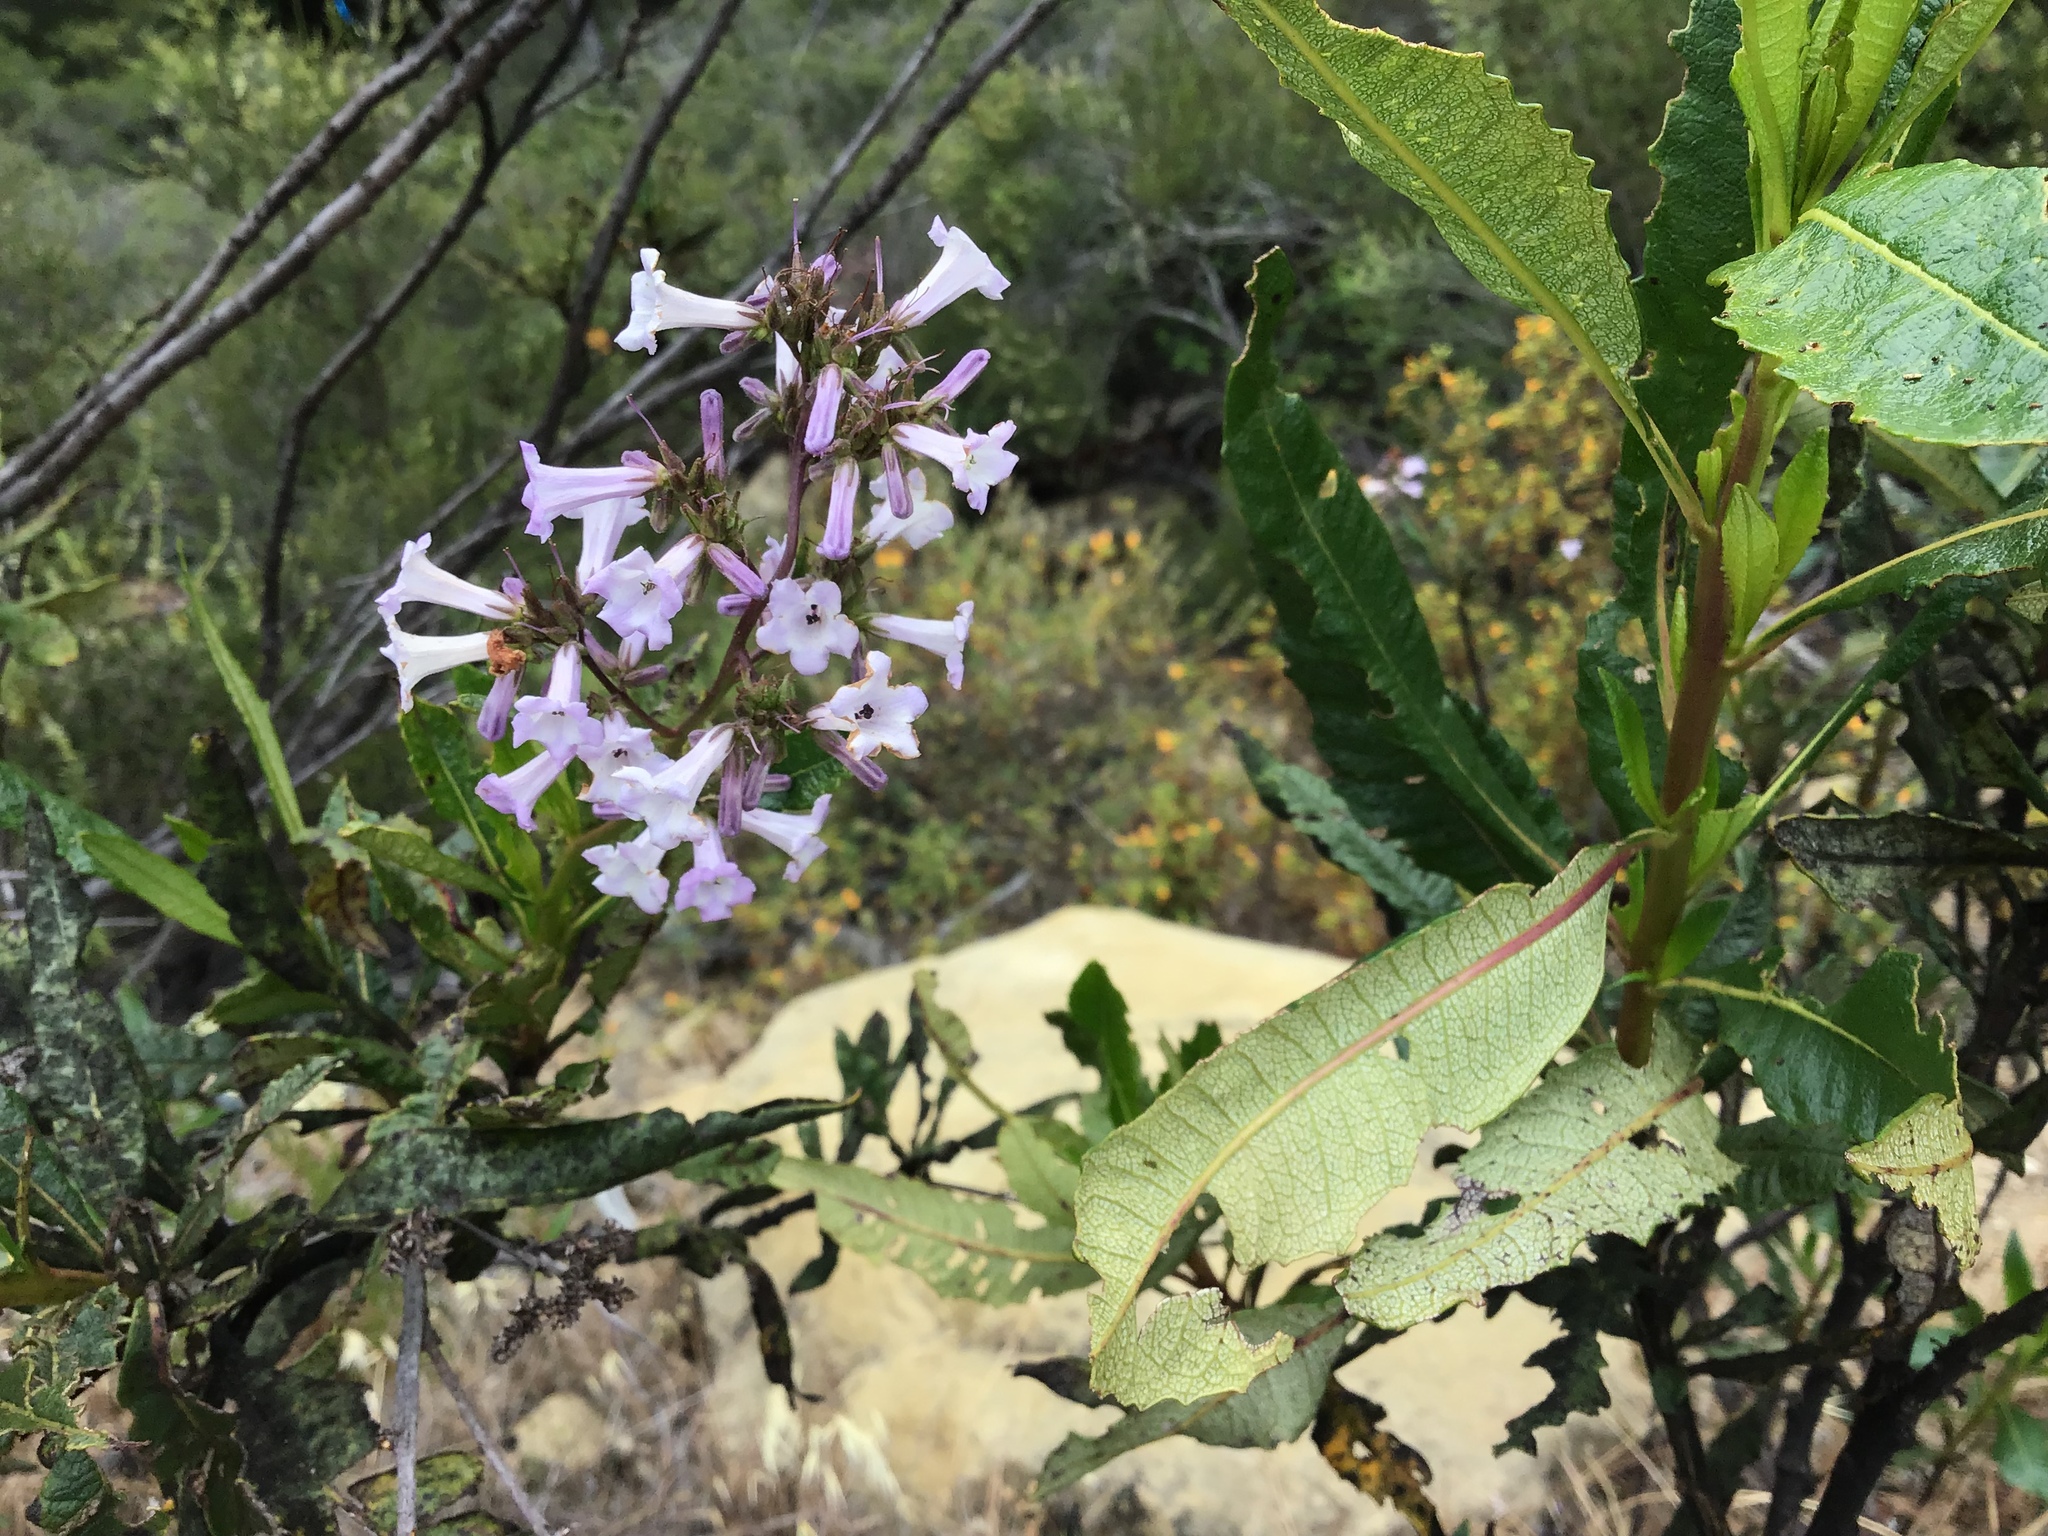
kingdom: Plantae
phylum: Tracheophyta
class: Magnoliopsida
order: Boraginales
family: Namaceae
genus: Eriodictyon
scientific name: Eriodictyon californicum
